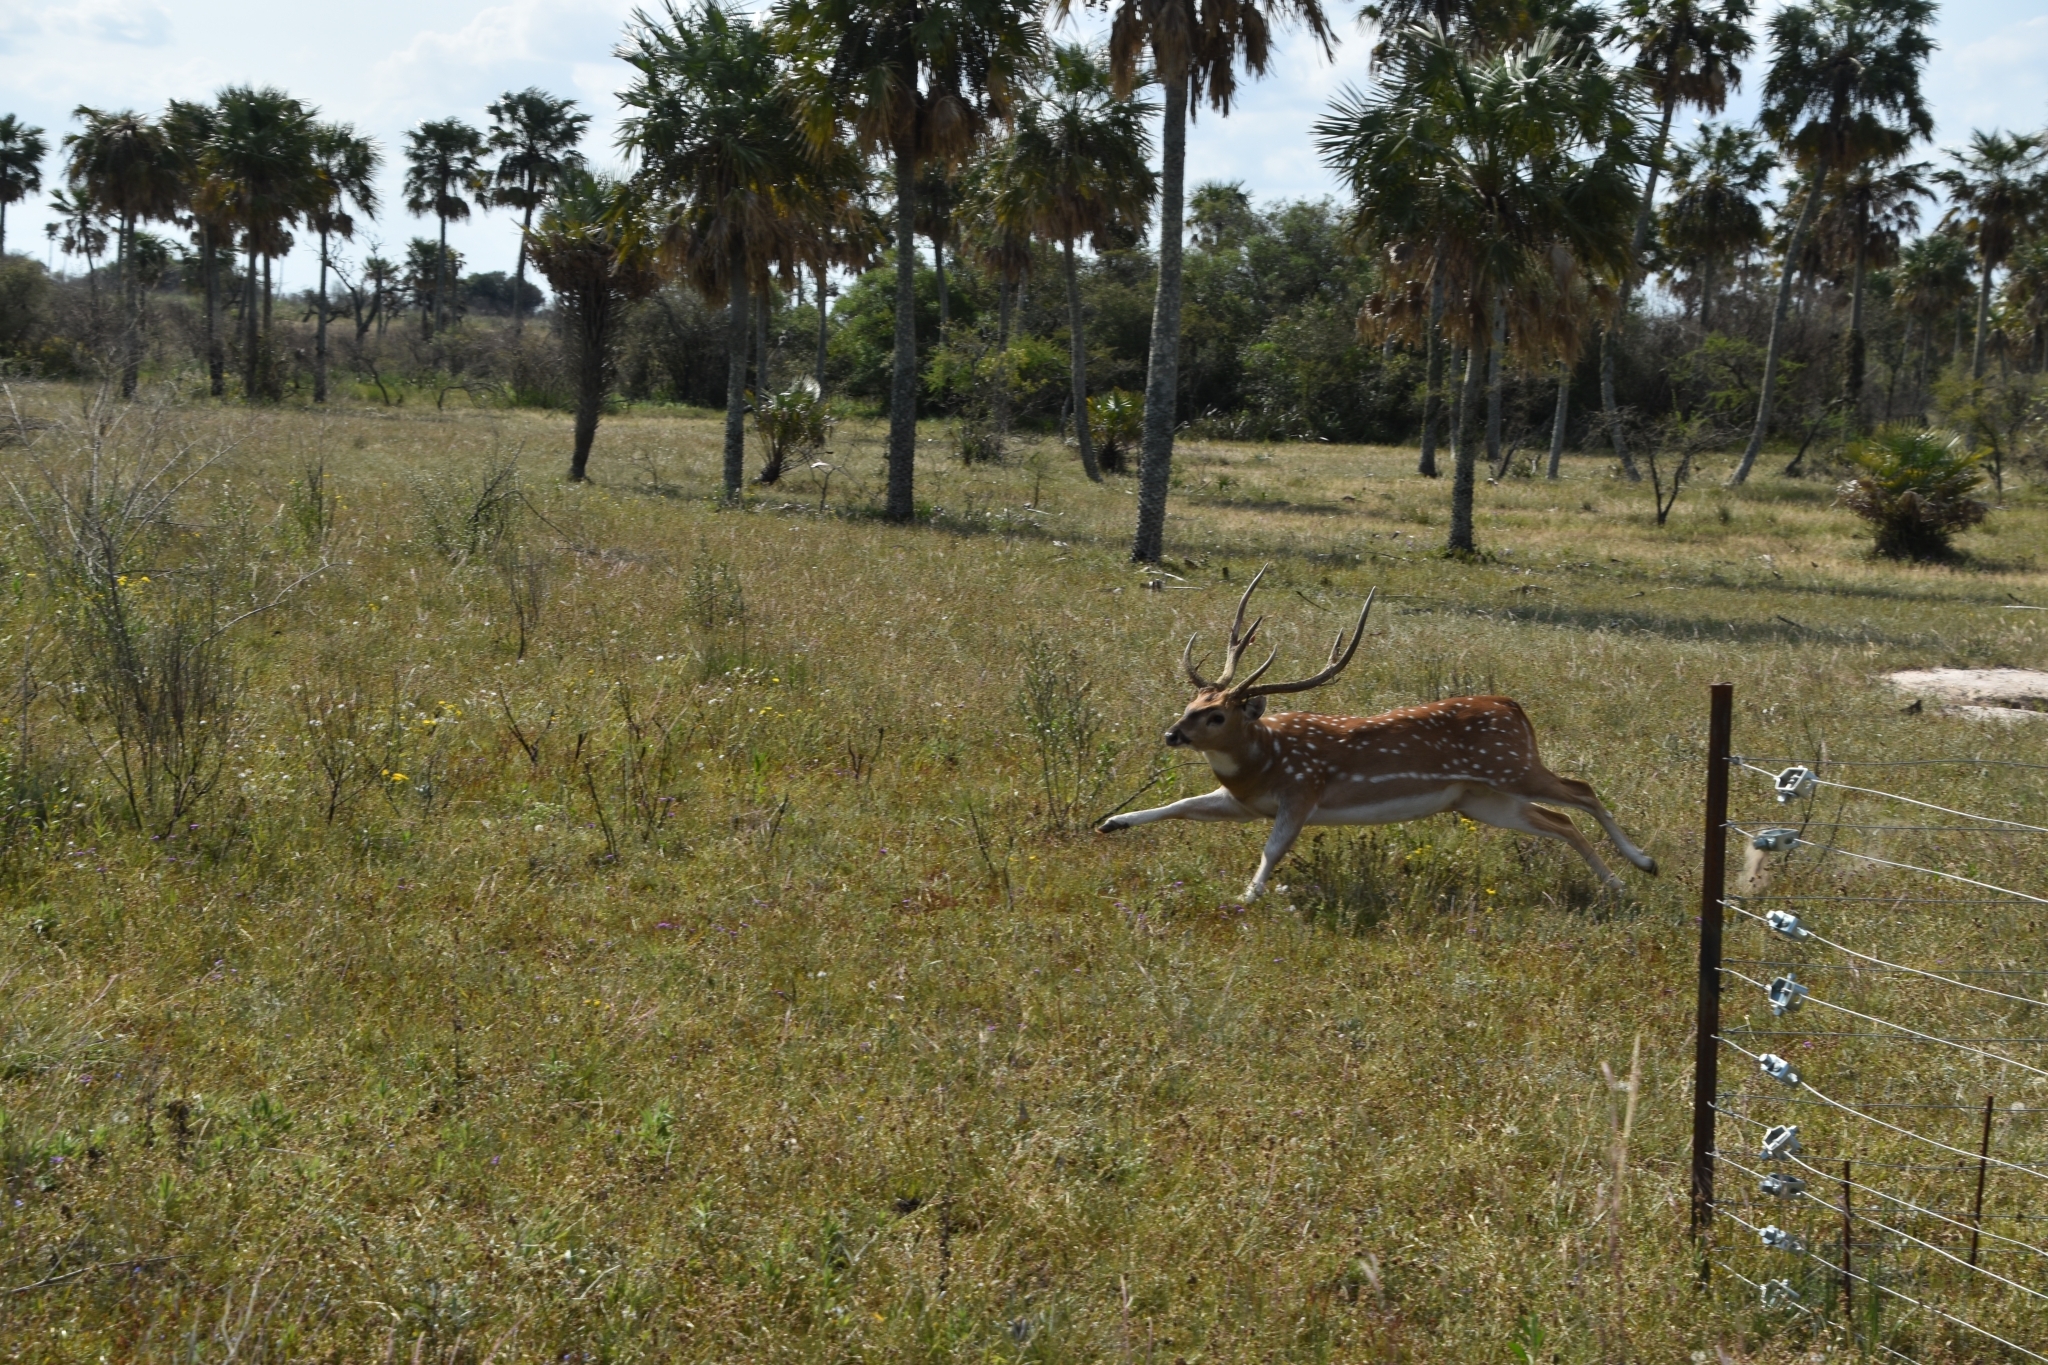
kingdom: Animalia
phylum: Chordata
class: Mammalia
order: Artiodactyla
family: Cervidae
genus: Axis
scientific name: Axis axis
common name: Chital
